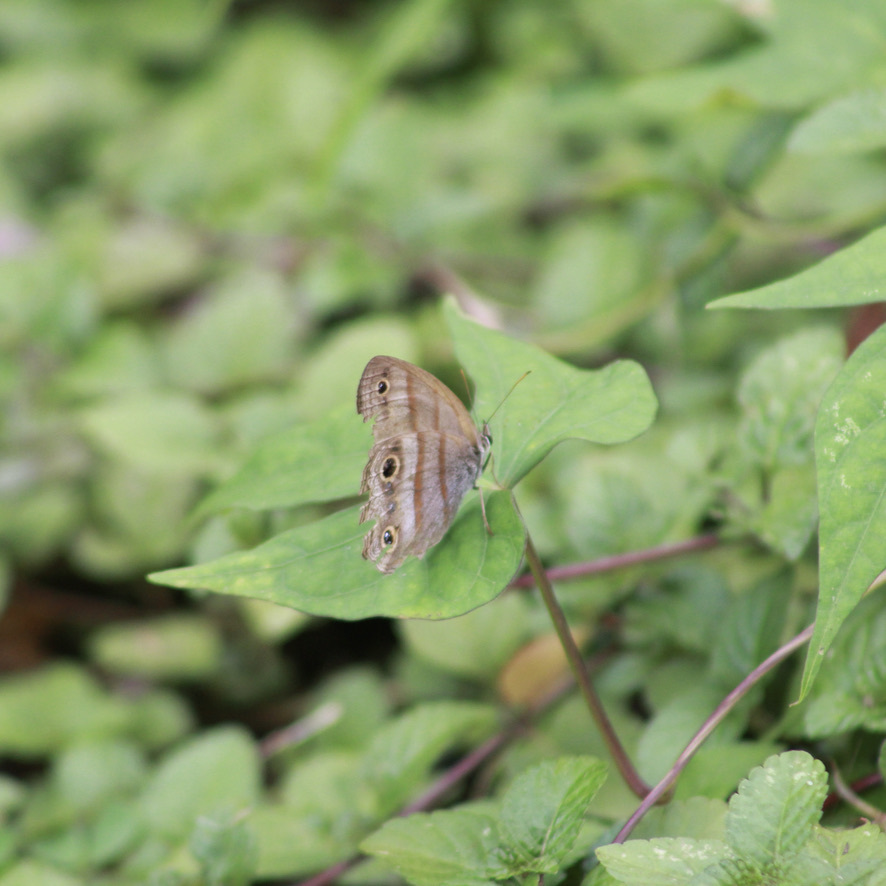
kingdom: Animalia
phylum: Arthropoda
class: Insecta
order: Lepidoptera
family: Nymphalidae
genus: Argyreuptychia
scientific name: Argyreuptychia penelope
